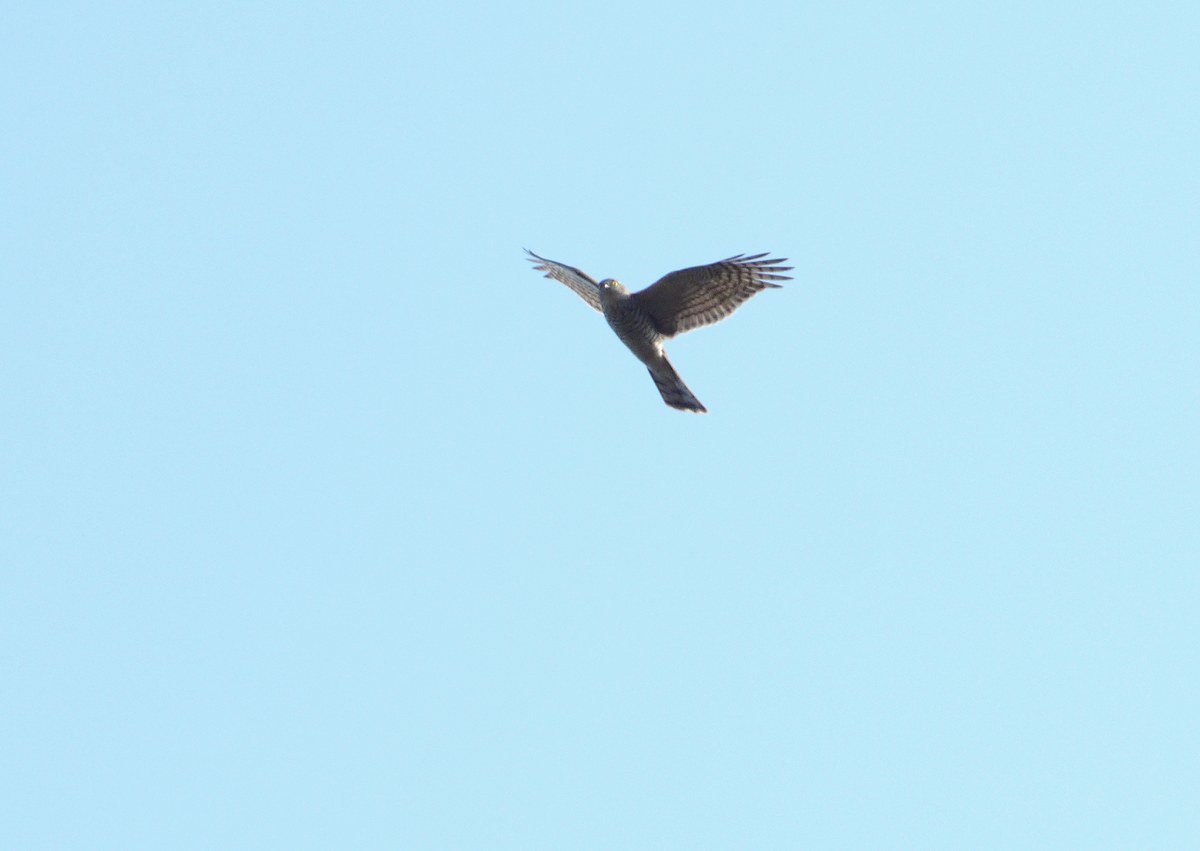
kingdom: Animalia
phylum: Chordata
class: Aves
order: Accipitriformes
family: Accipitridae
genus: Accipiter
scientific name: Accipiter nisus
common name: Eurasian sparrowhawk
